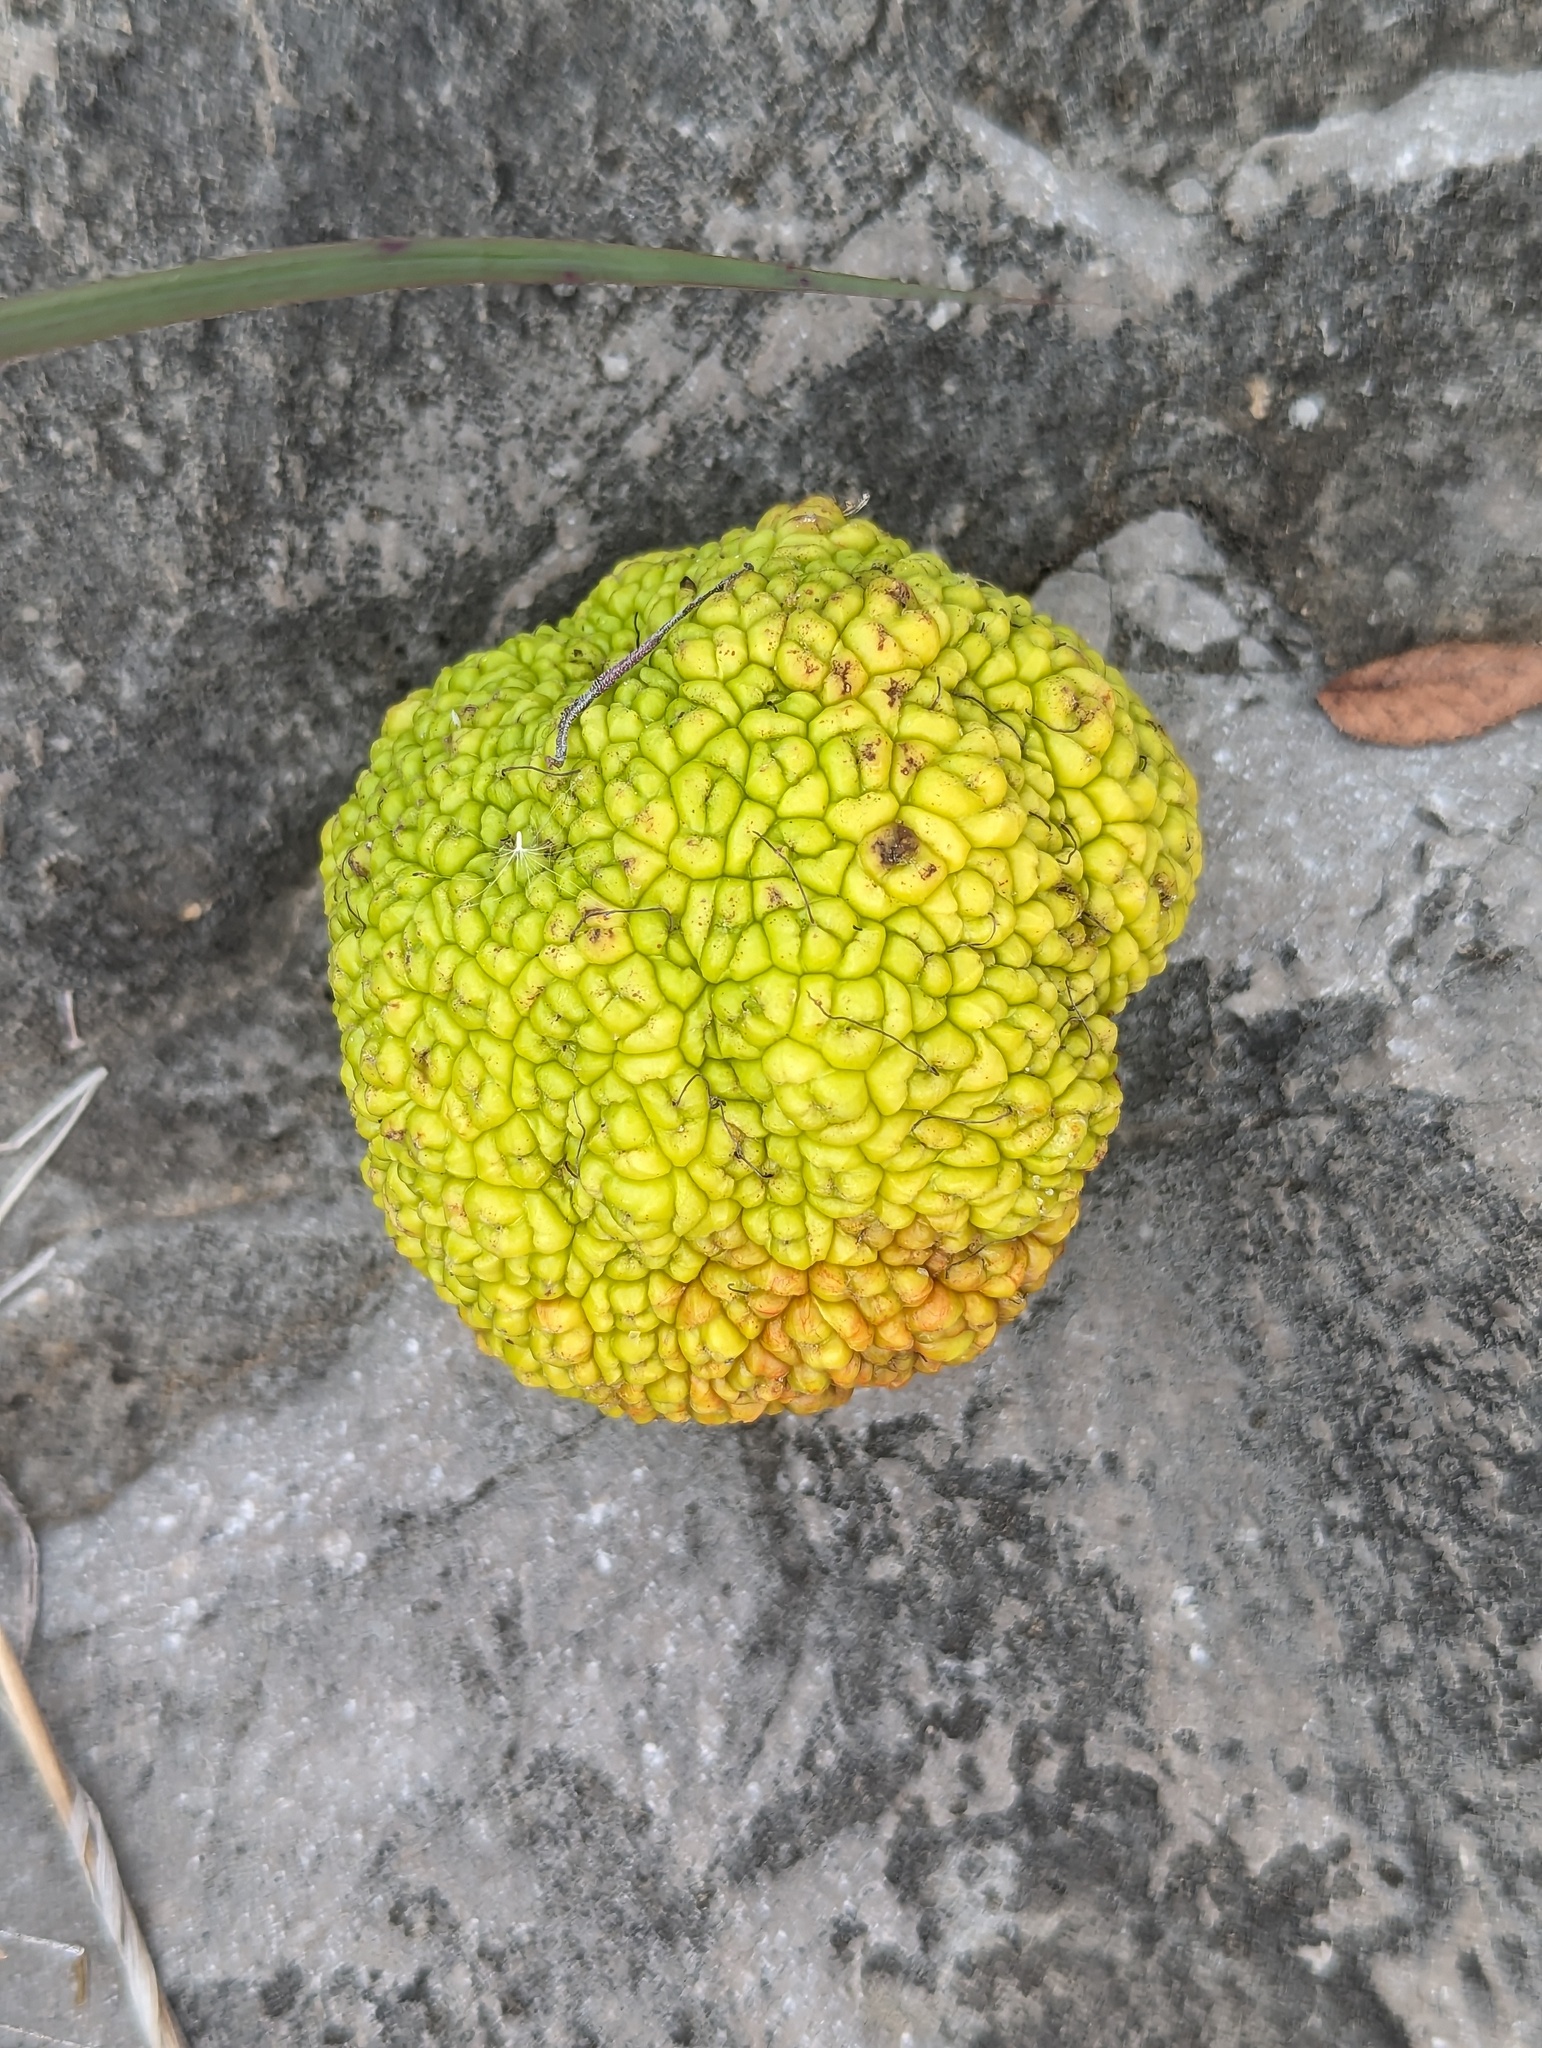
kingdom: Plantae
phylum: Tracheophyta
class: Magnoliopsida
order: Rosales
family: Moraceae
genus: Maclura
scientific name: Maclura pomifera
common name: Osage-orange
